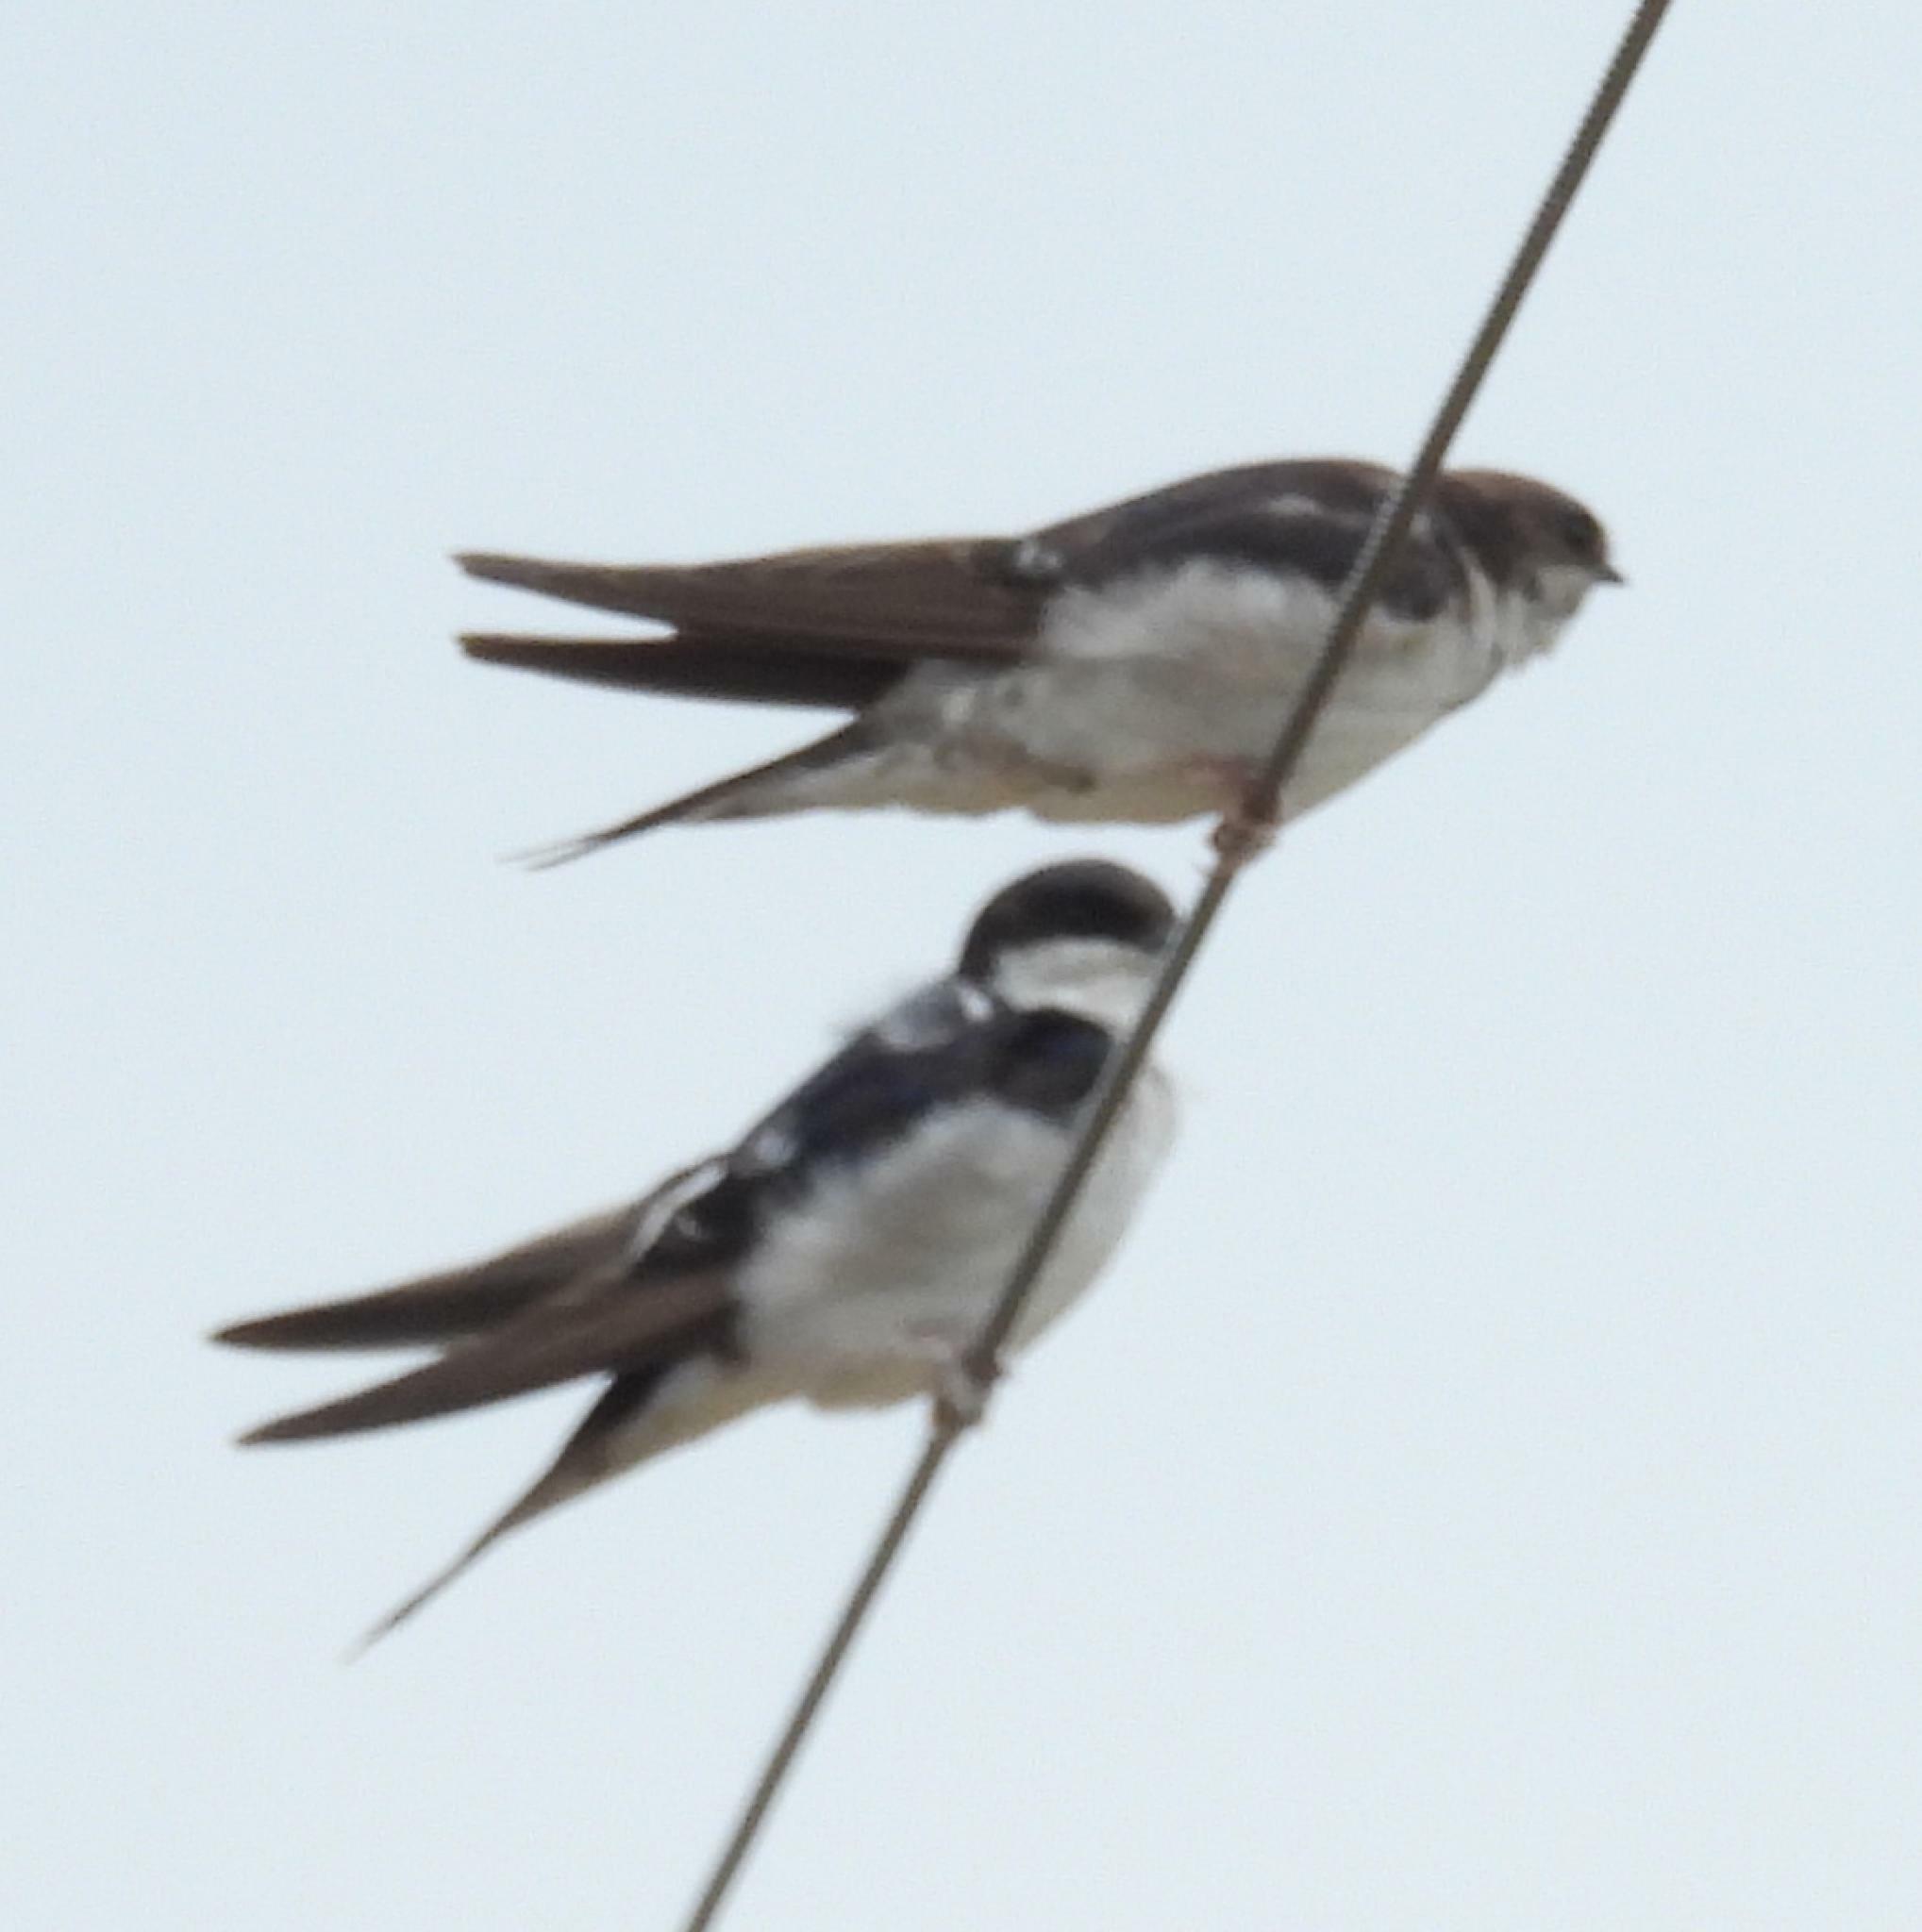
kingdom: Animalia
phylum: Chordata
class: Aves
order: Passeriformes
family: Hirundinidae
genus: Delichon
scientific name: Delichon urbicum
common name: Common house martin
